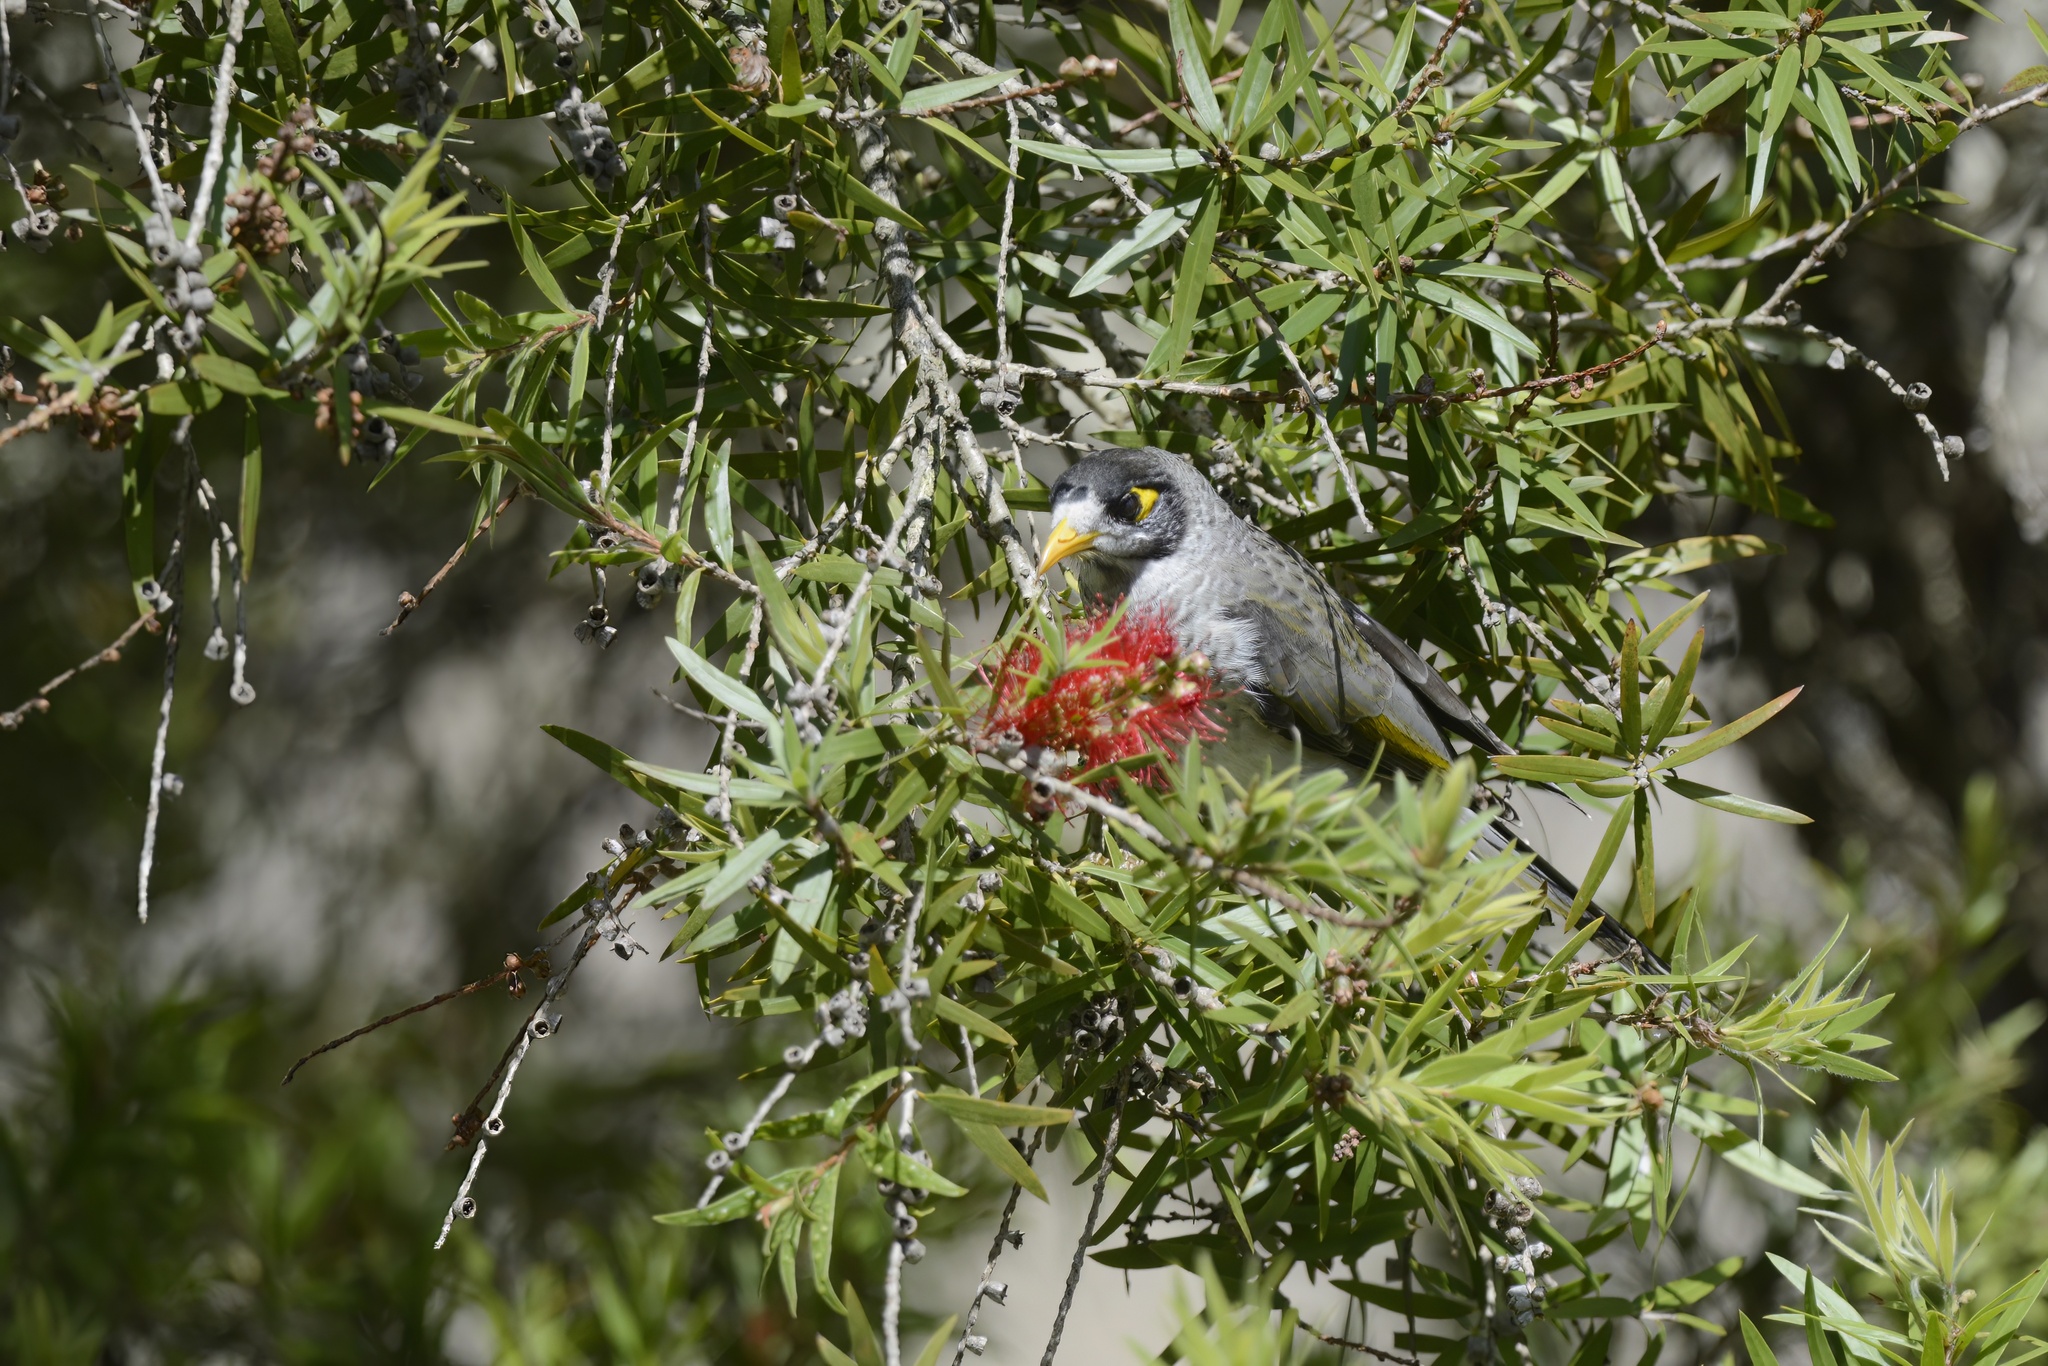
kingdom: Animalia
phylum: Chordata
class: Aves
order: Passeriformes
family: Meliphagidae
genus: Manorina
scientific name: Manorina melanocephala
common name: Noisy miner
